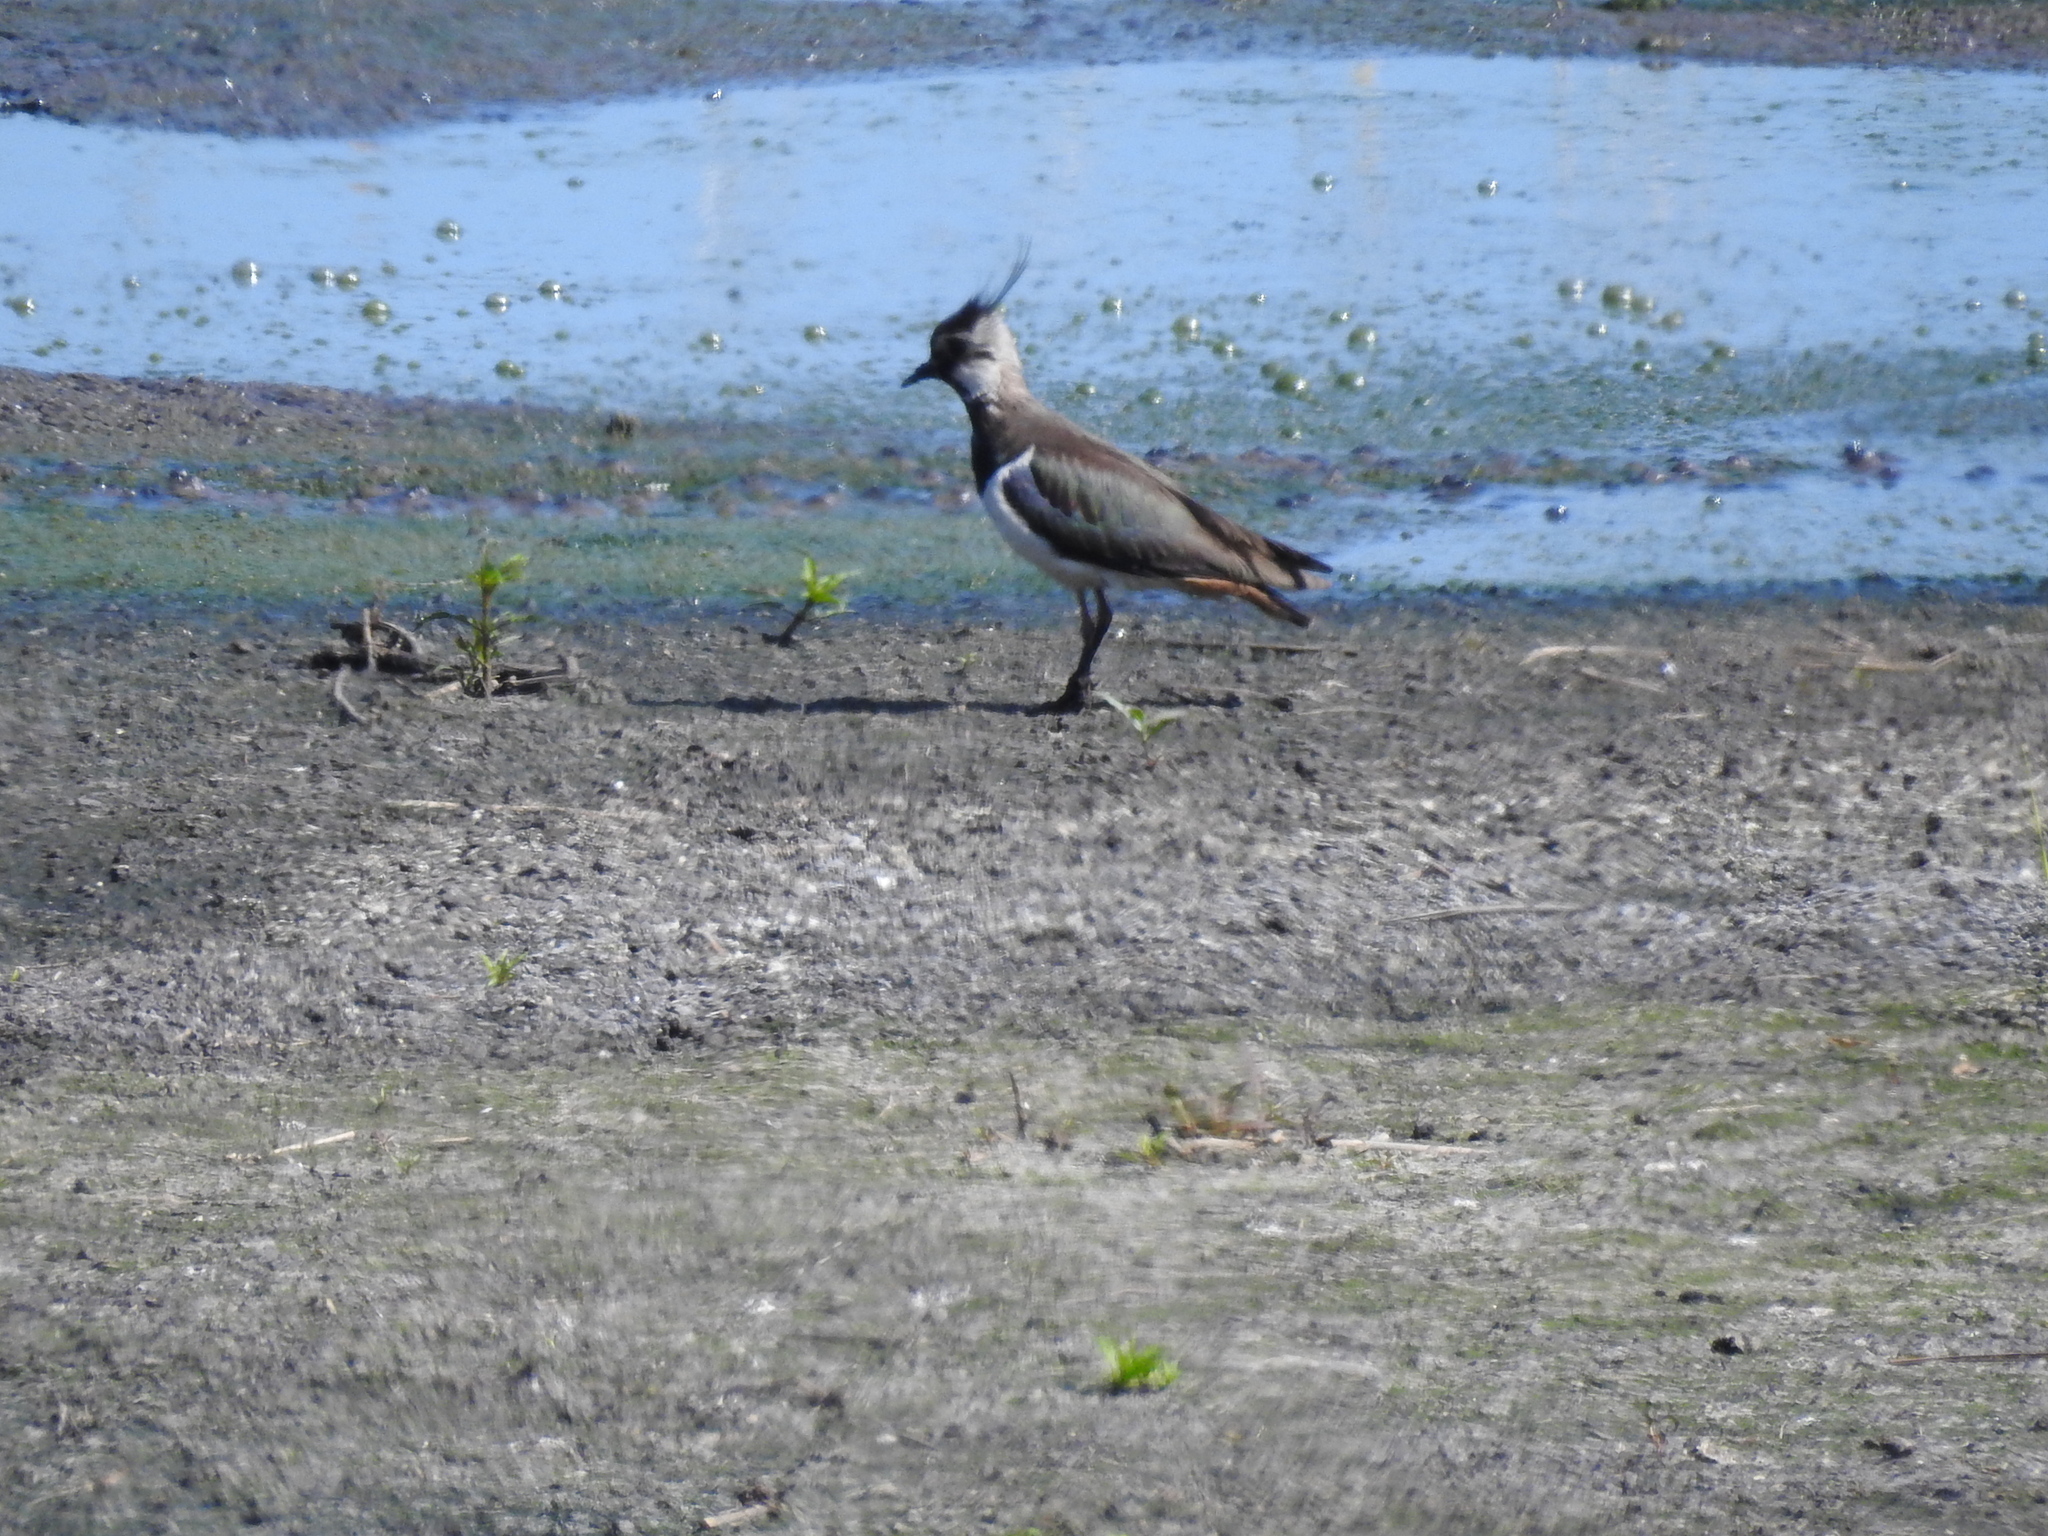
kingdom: Animalia
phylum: Chordata
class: Aves
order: Charadriiformes
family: Charadriidae
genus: Vanellus
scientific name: Vanellus vanellus
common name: Northern lapwing
